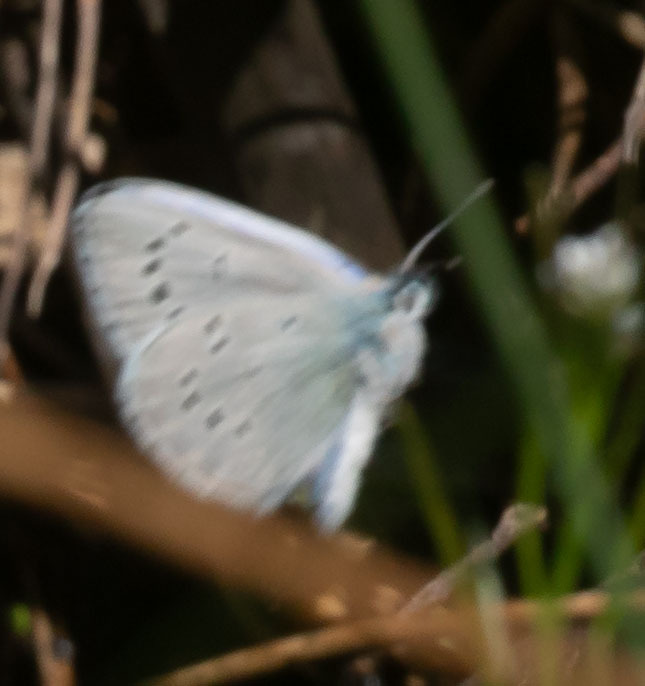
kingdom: Animalia
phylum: Arthropoda
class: Insecta
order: Lepidoptera
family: Lycaenidae
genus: Glaucopsyche
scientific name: Glaucopsyche lygdamus
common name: Silvery blue
